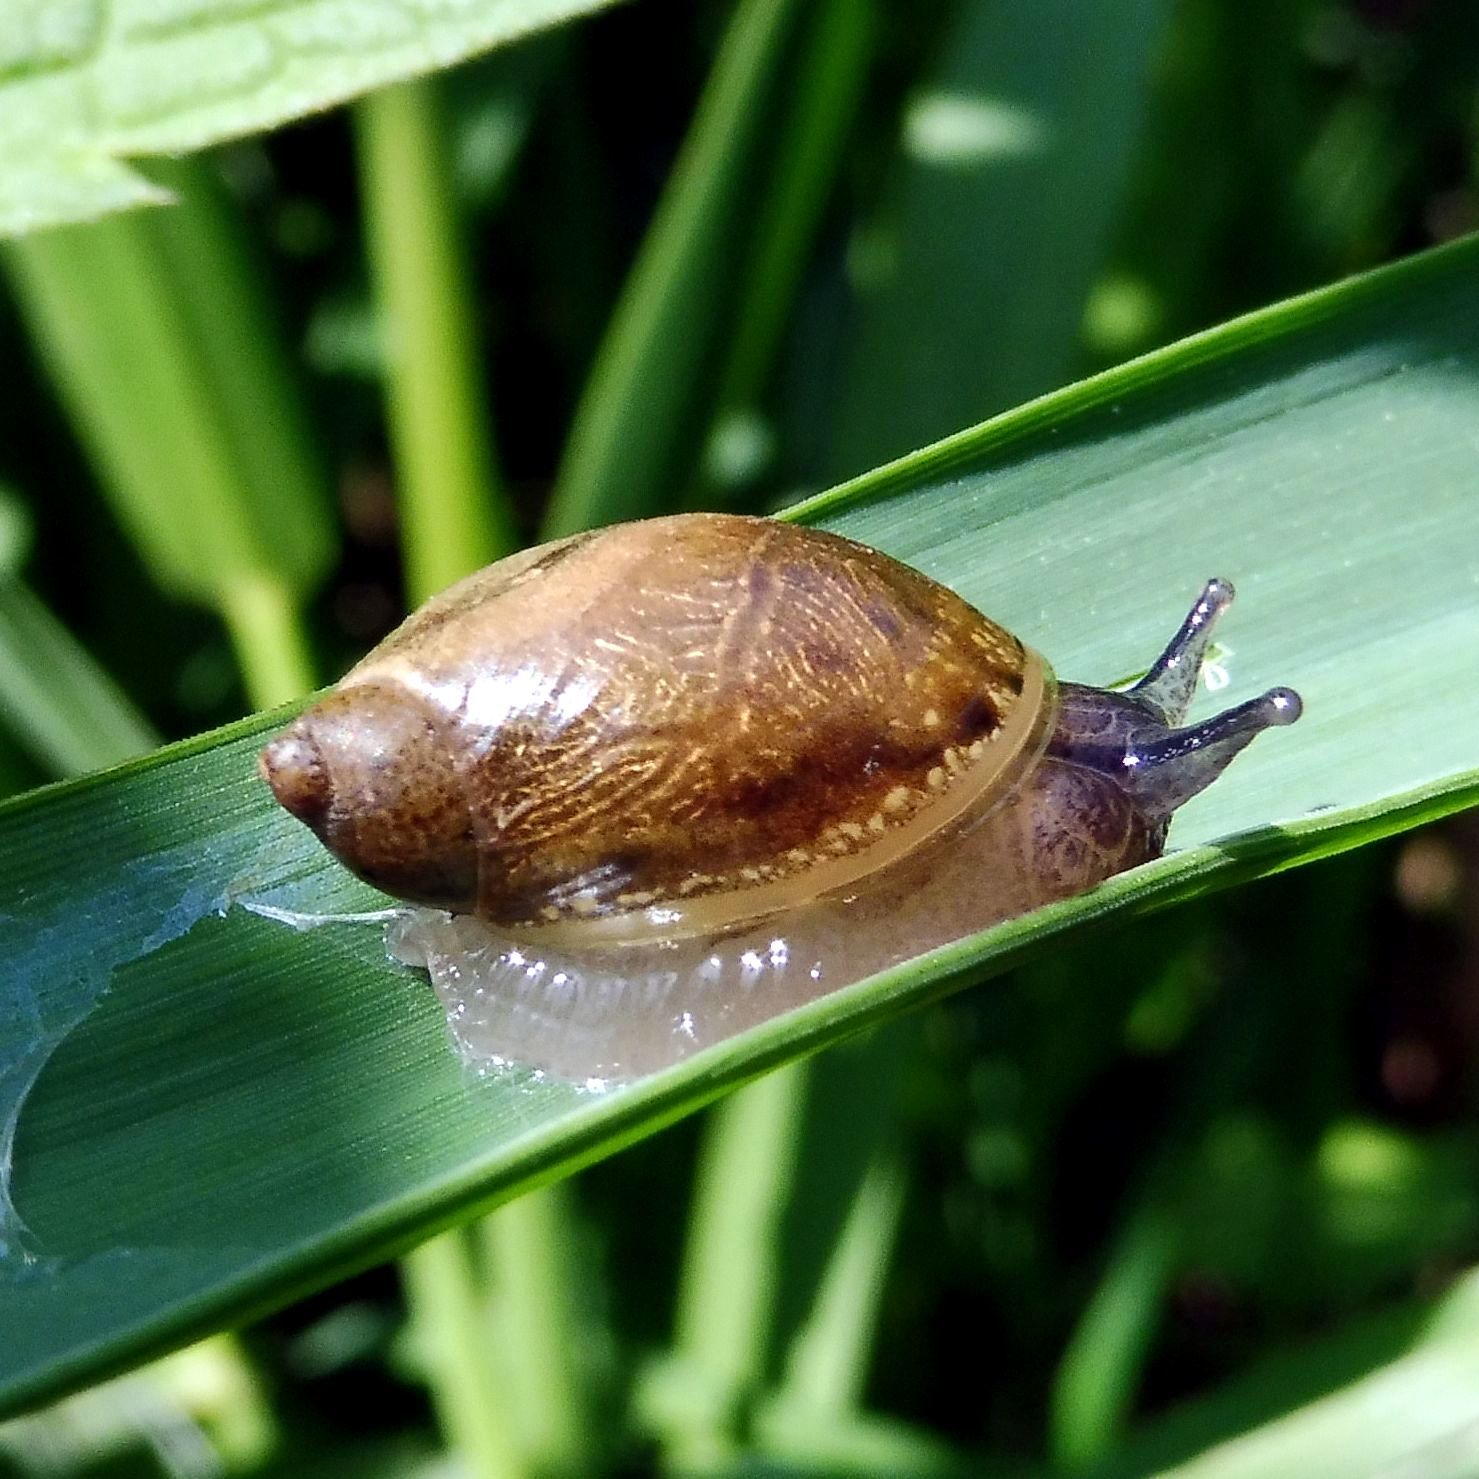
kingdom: Animalia
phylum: Mollusca
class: Gastropoda
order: Stylommatophora
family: Succineidae
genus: Succinea
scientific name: Succinea putris
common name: European ambersnail
